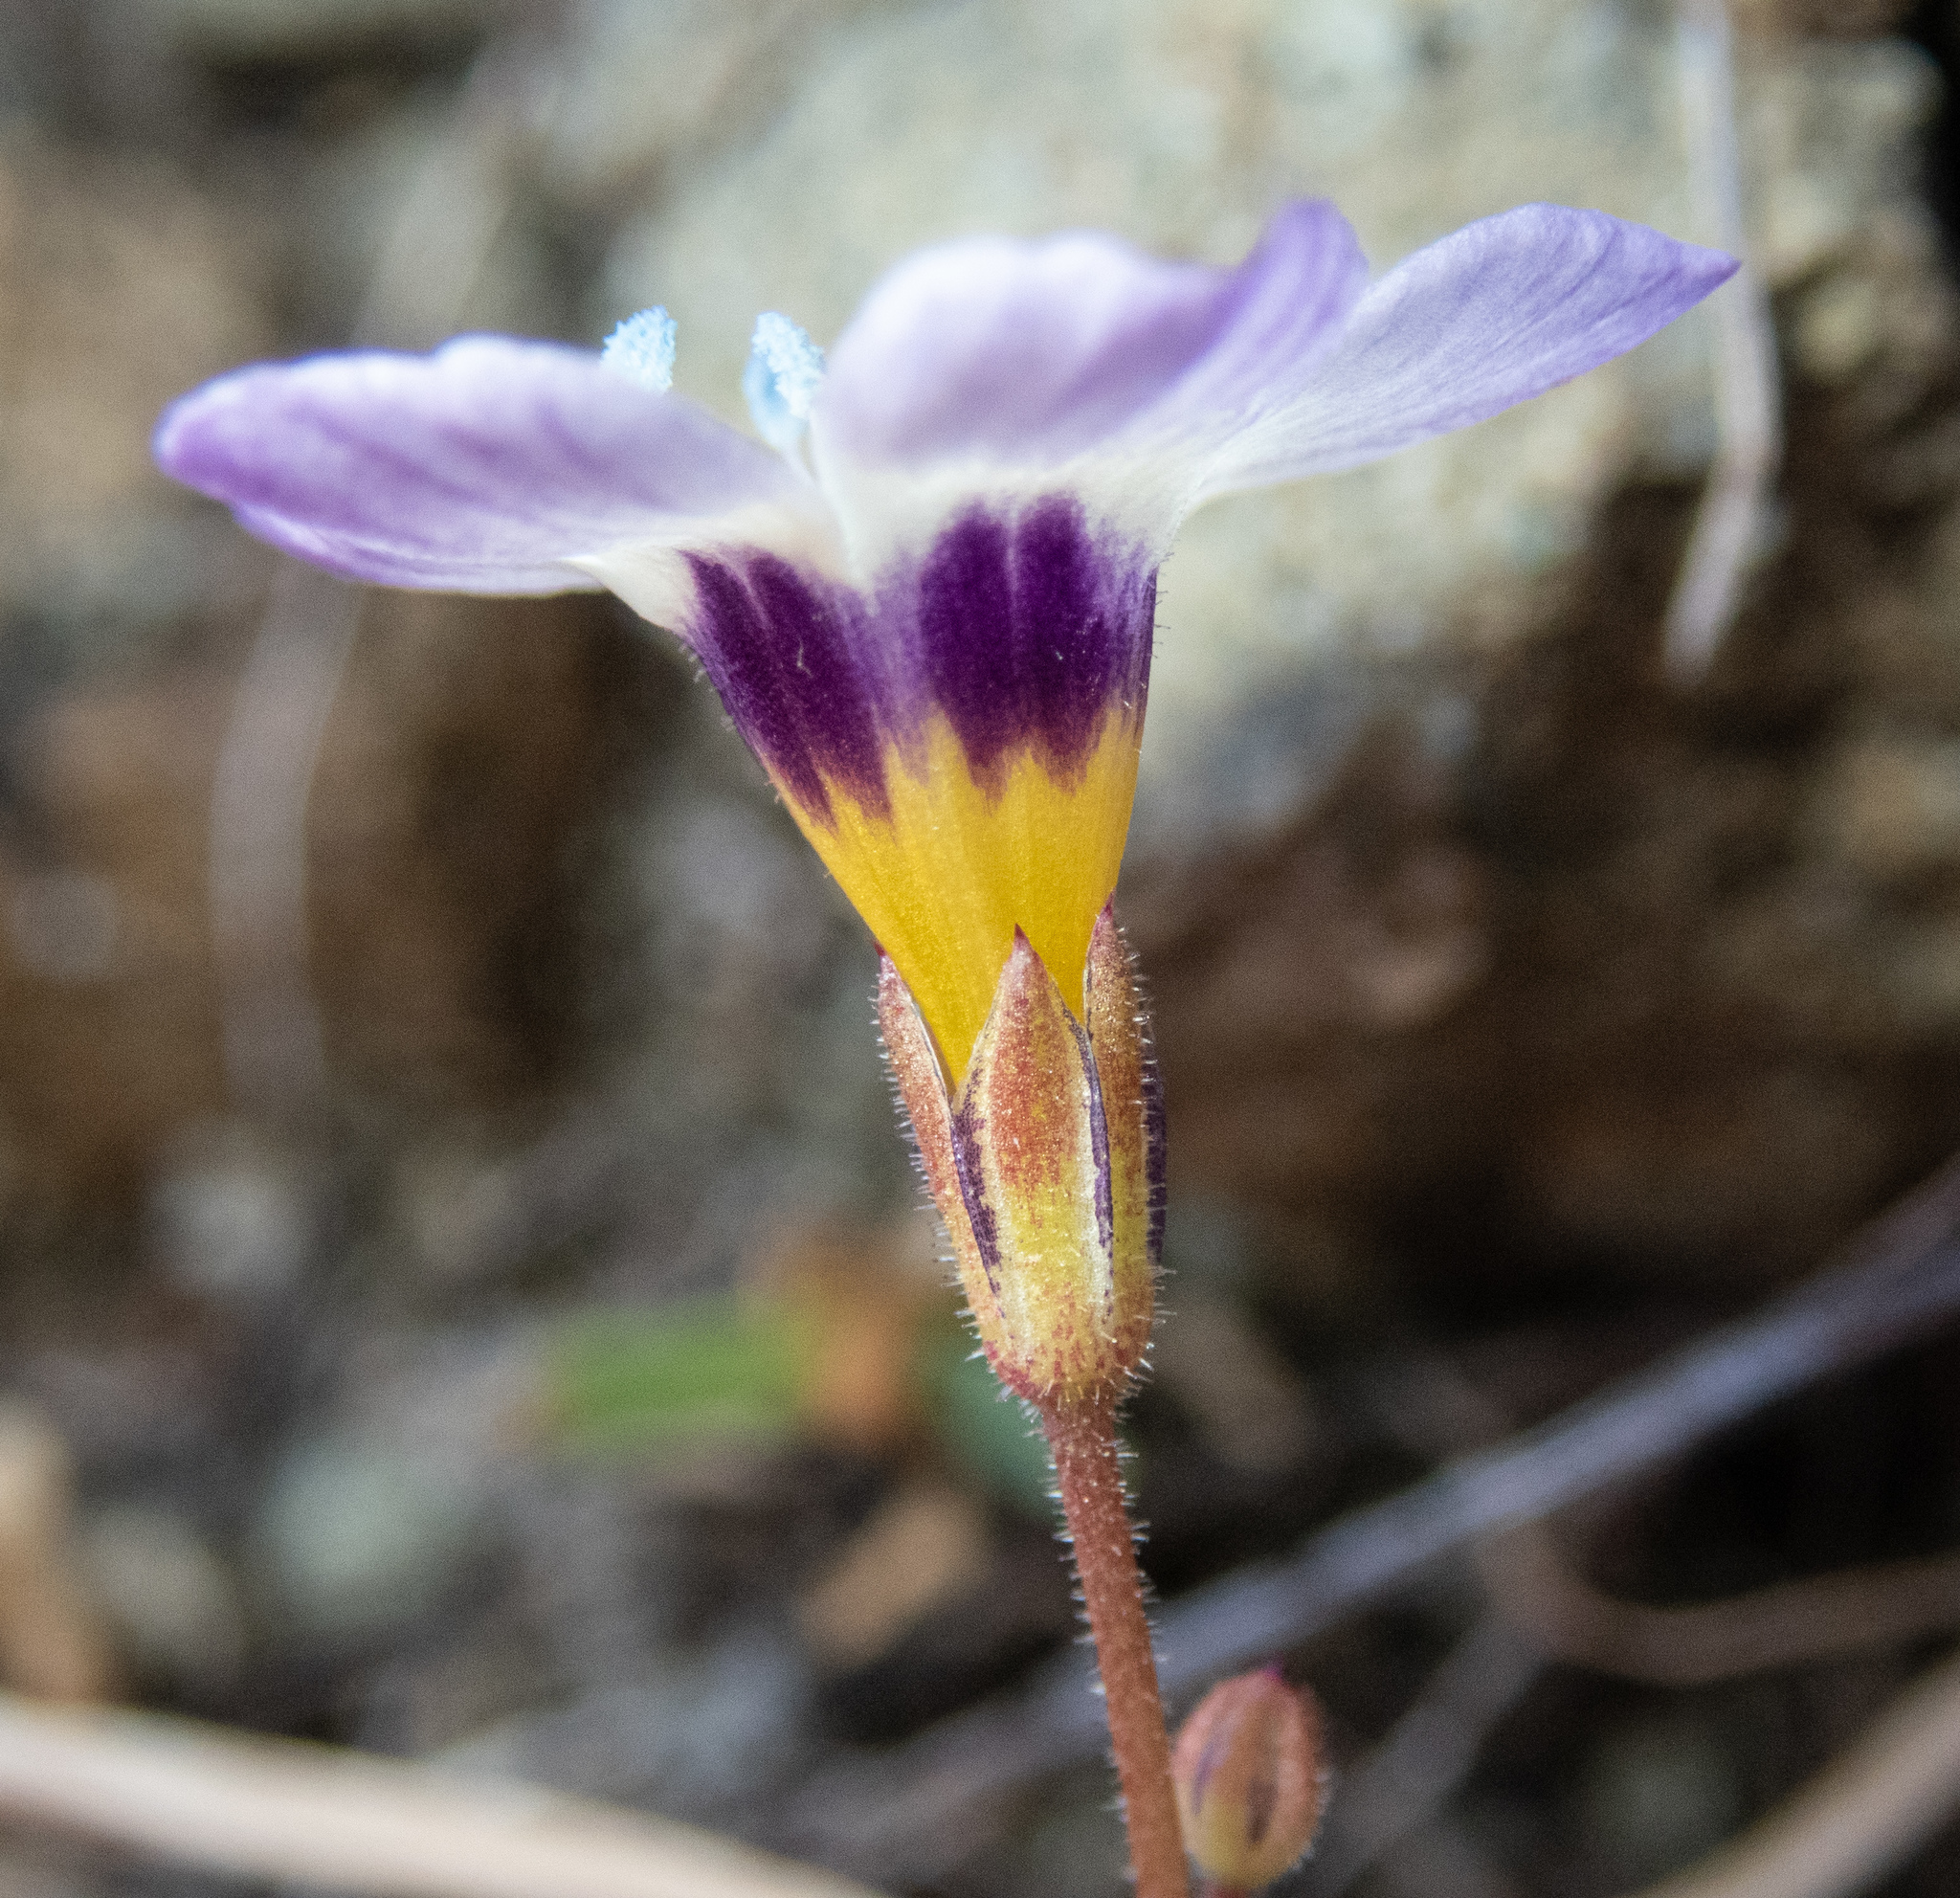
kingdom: Plantae
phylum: Tracheophyta
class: Magnoliopsida
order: Ericales
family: Polemoniaceae
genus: Gilia
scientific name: Gilia tricolor
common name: Bird's-eyes
